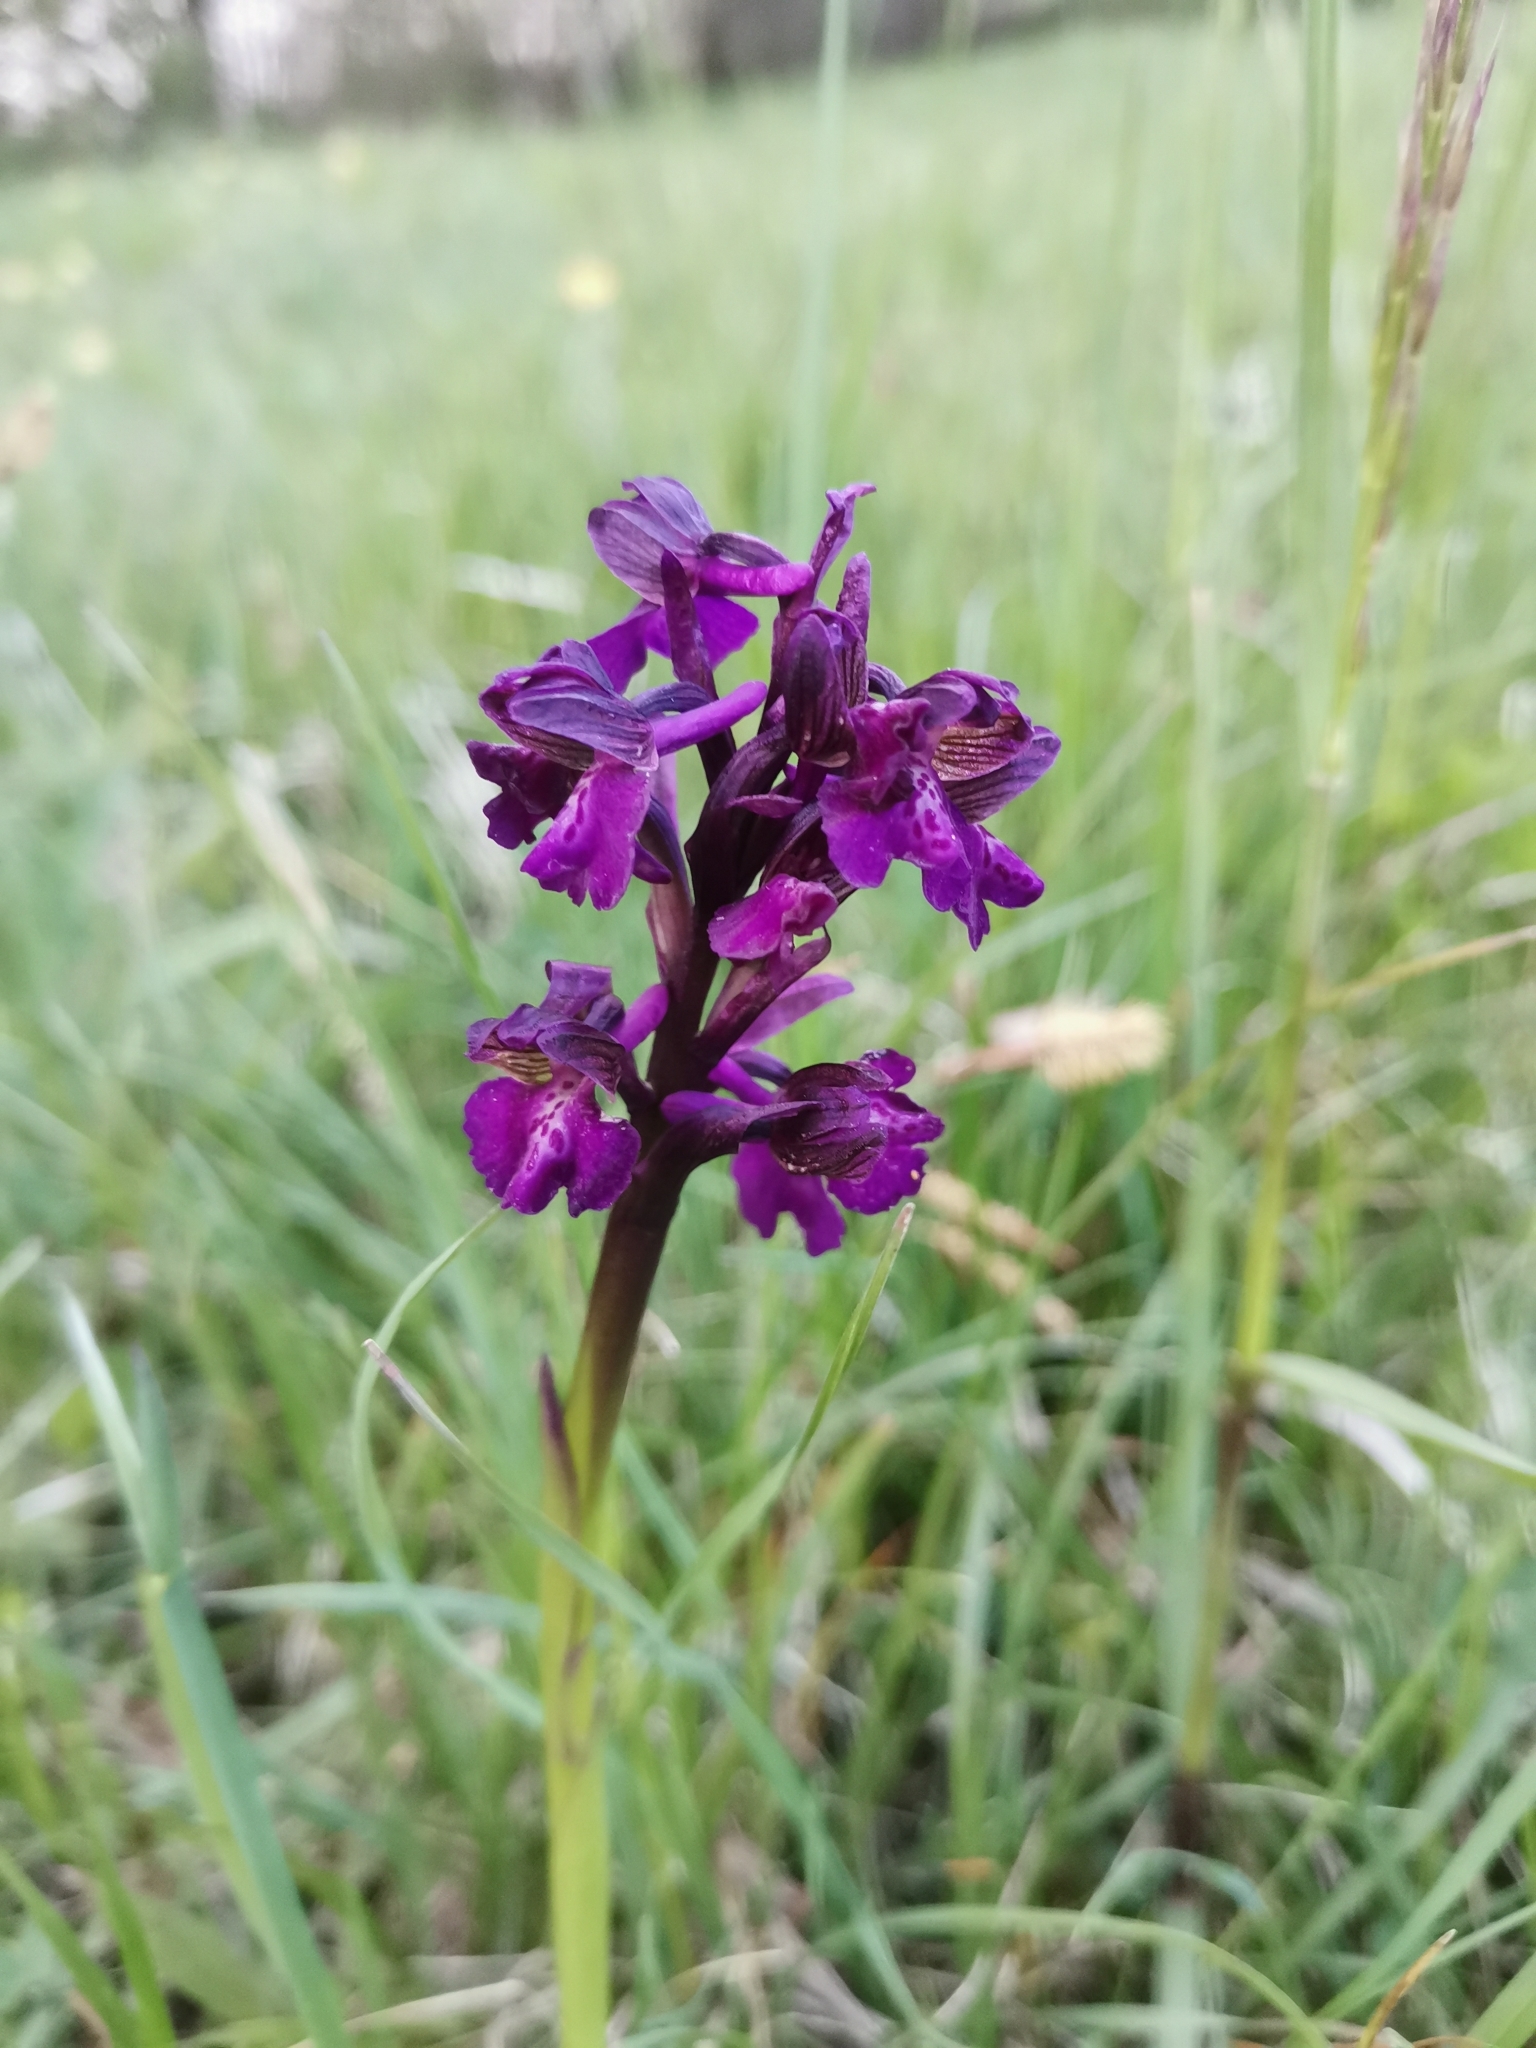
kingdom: Plantae
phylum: Tracheophyta
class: Liliopsida
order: Asparagales
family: Orchidaceae
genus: Anacamptis
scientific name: Anacamptis morio
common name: Green-winged orchid
